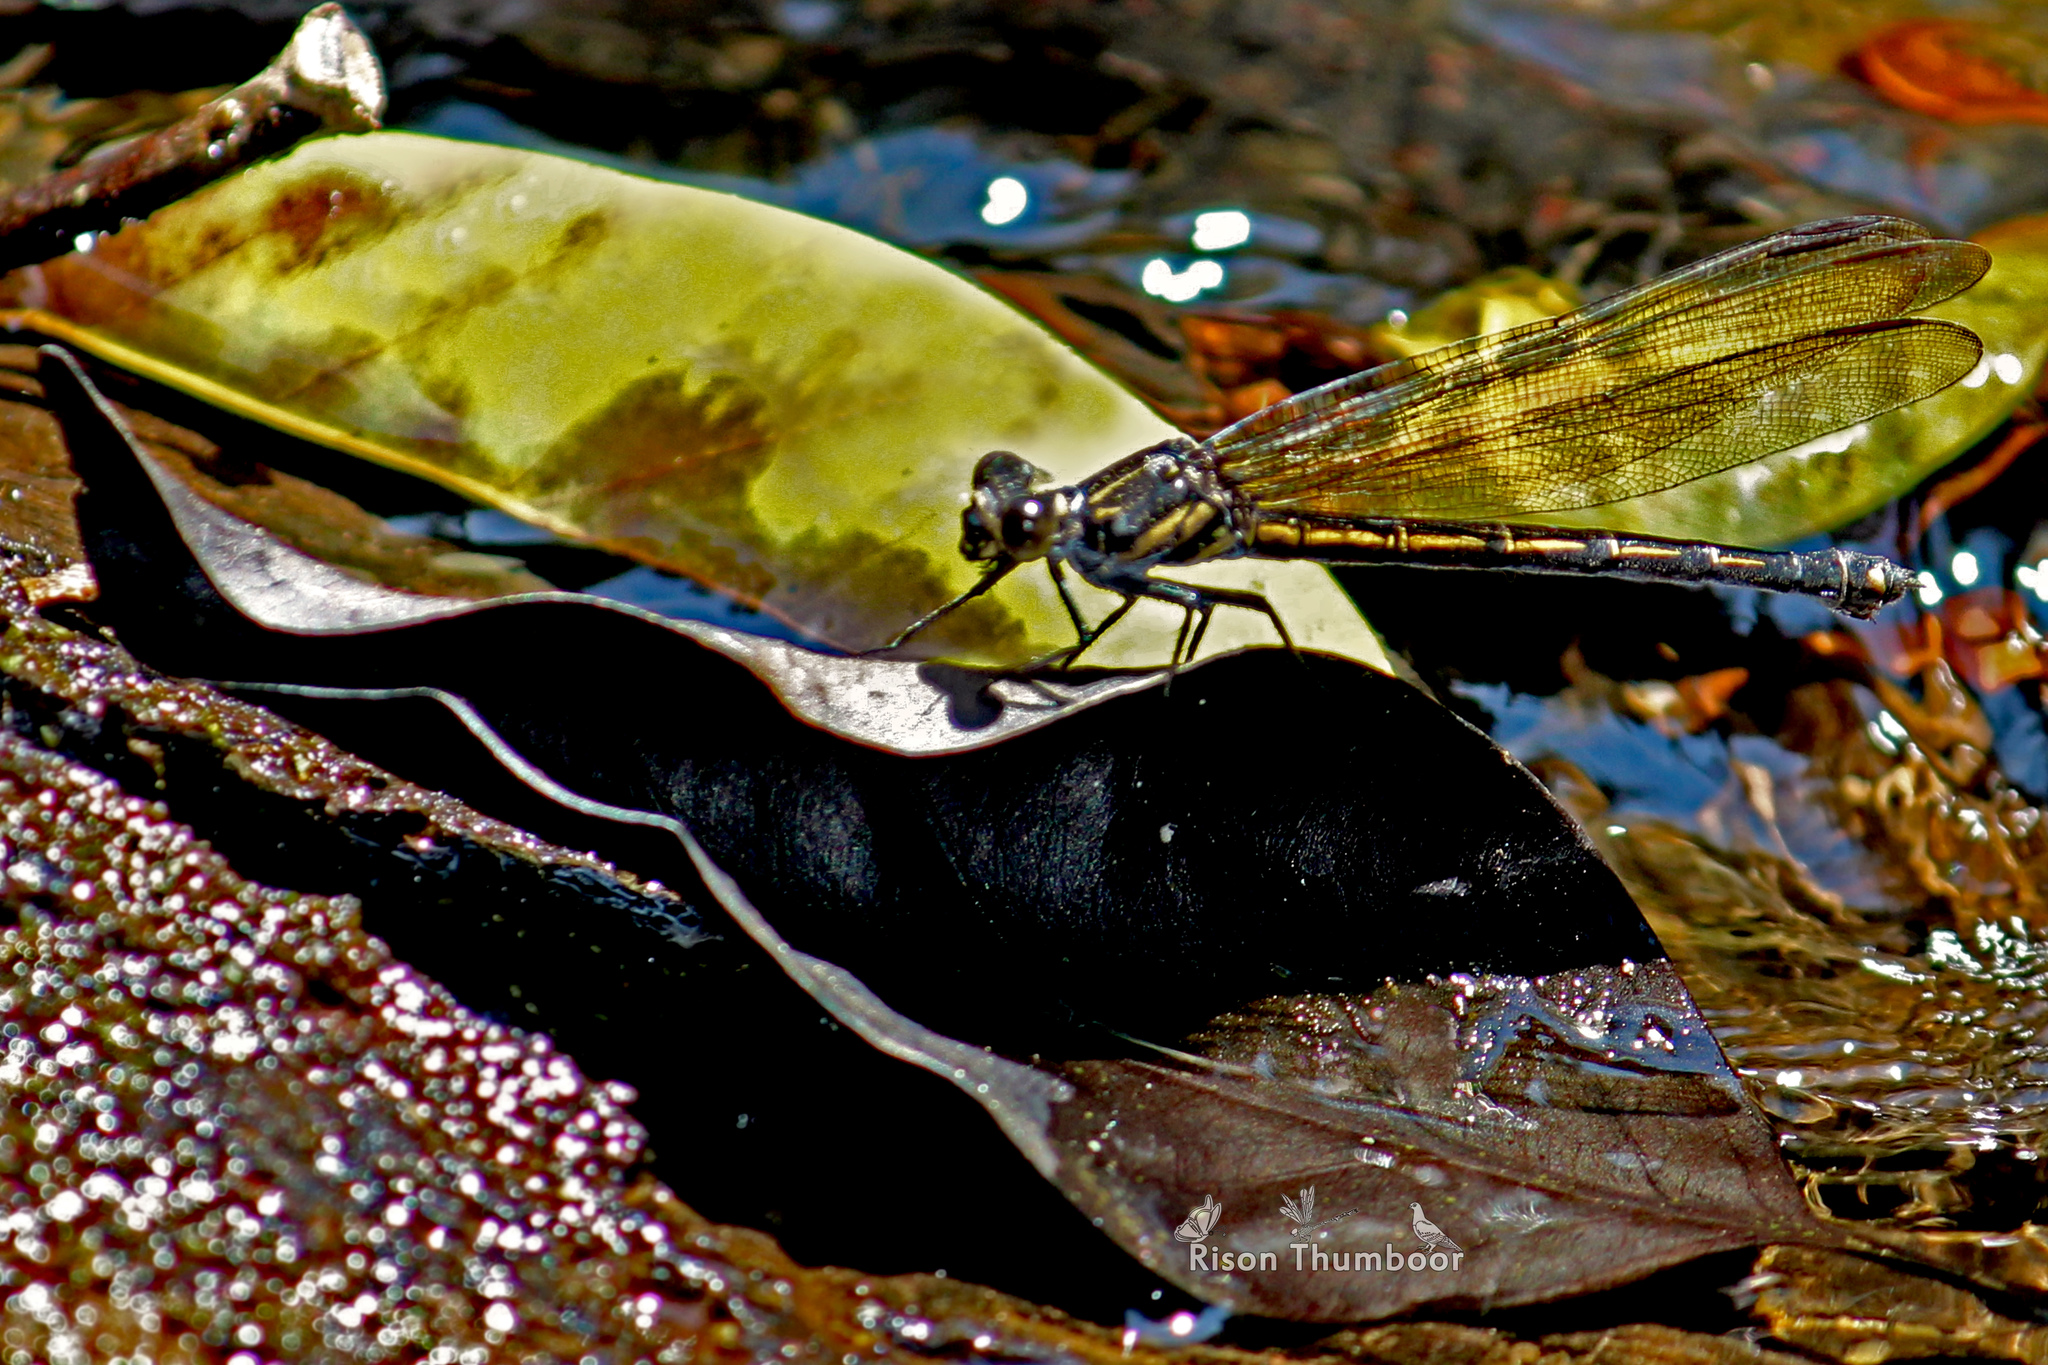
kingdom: Animalia
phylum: Arthropoda
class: Insecta
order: Odonata
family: Euphaeidae
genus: Dysphaea
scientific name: Dysphaea ethela
